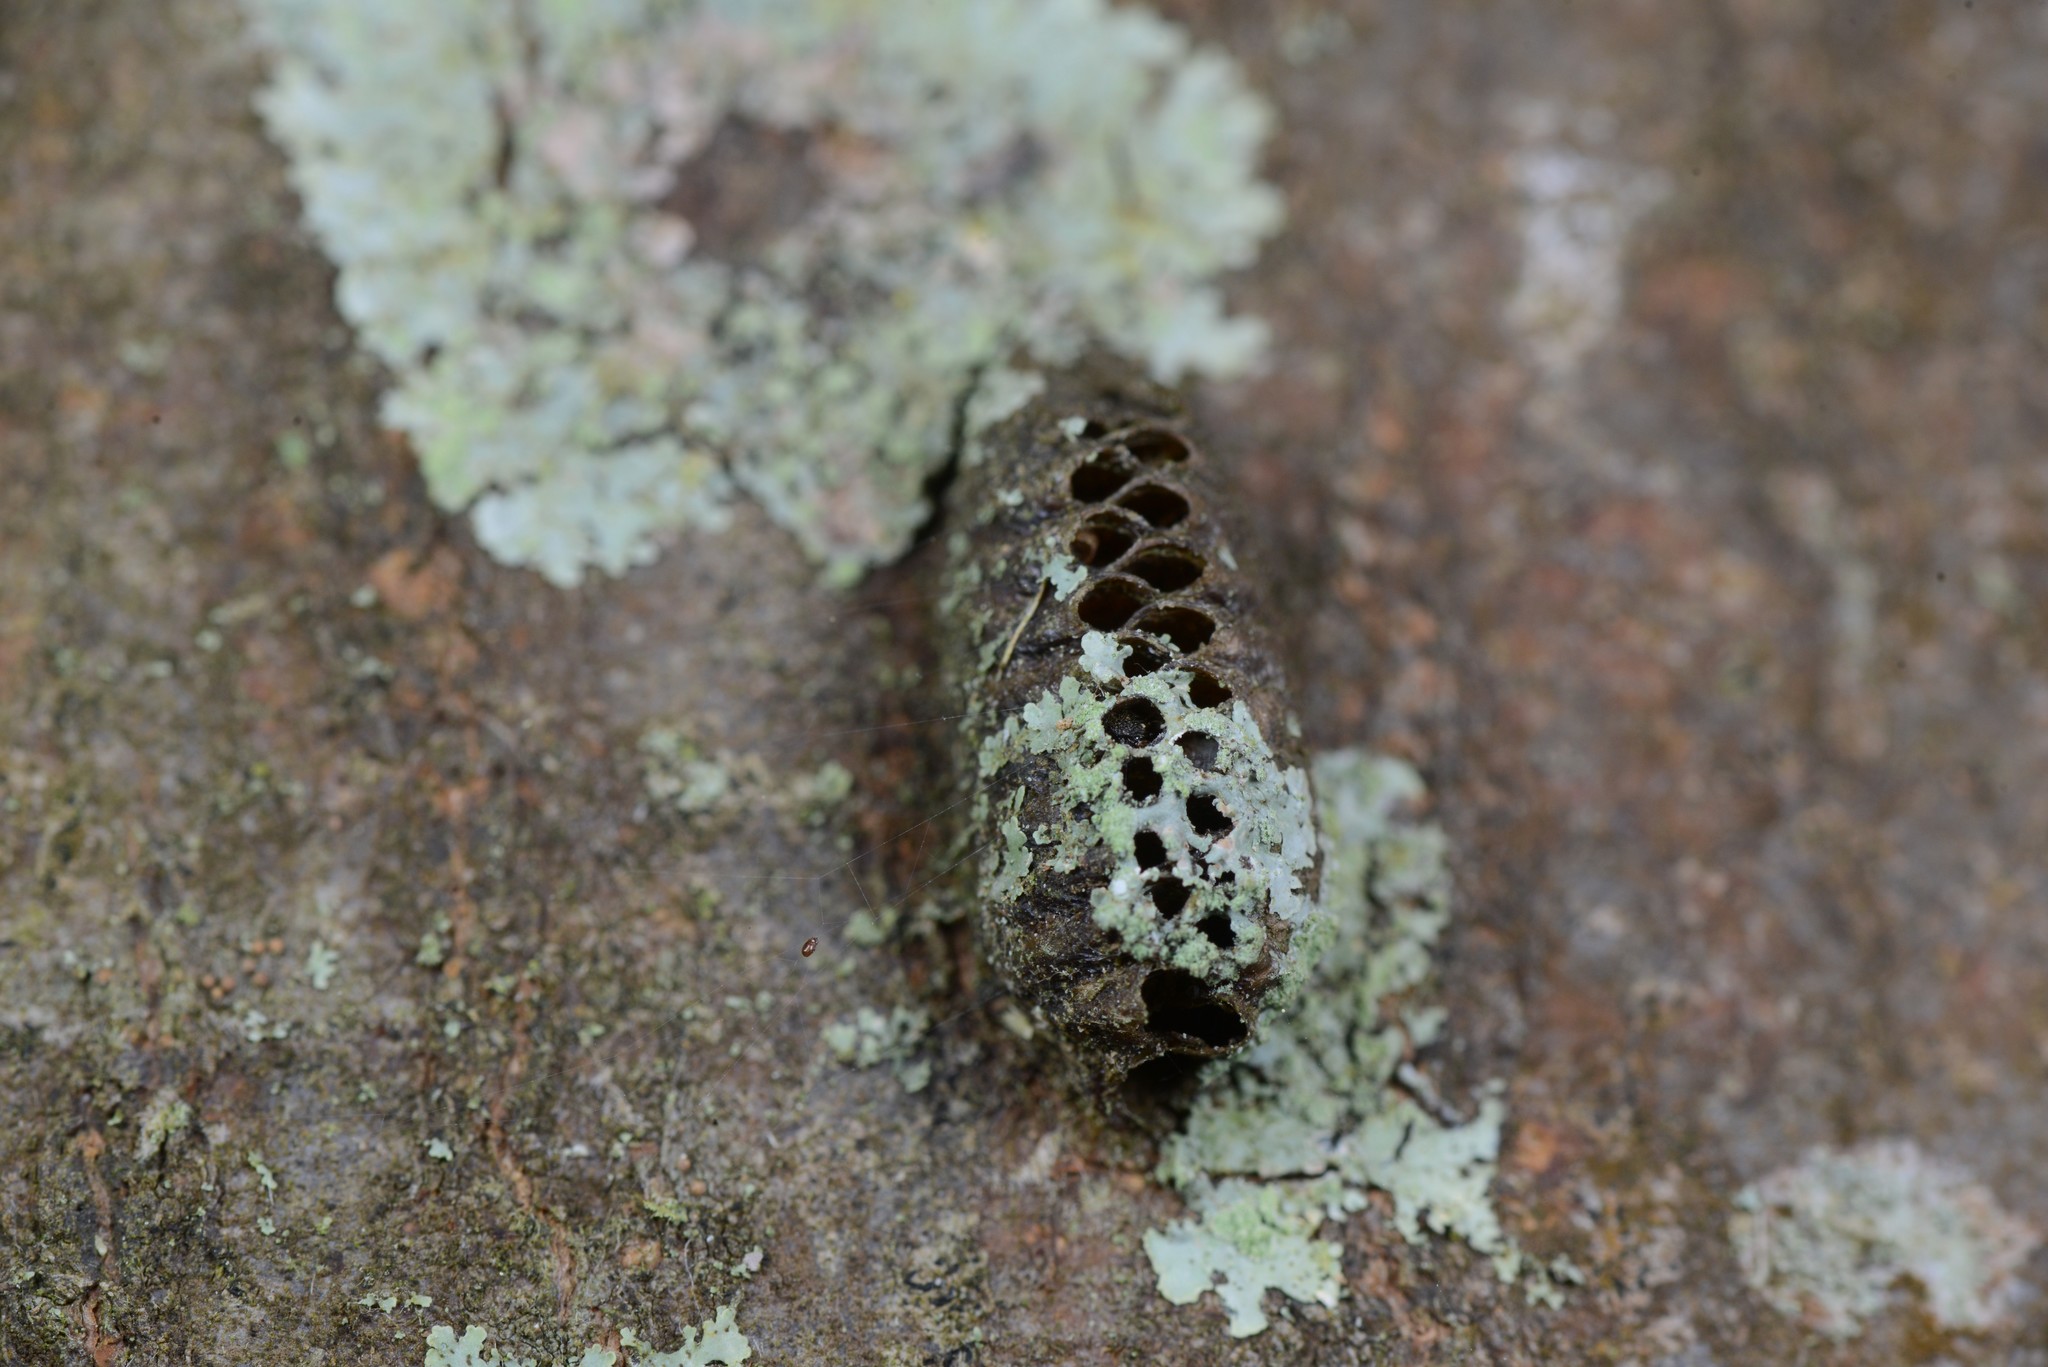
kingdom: Animalia
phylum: Arthropoda
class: Insecta
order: Mantodea
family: Mantidae
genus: Orthodera
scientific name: Orthodera novaezealandiae
